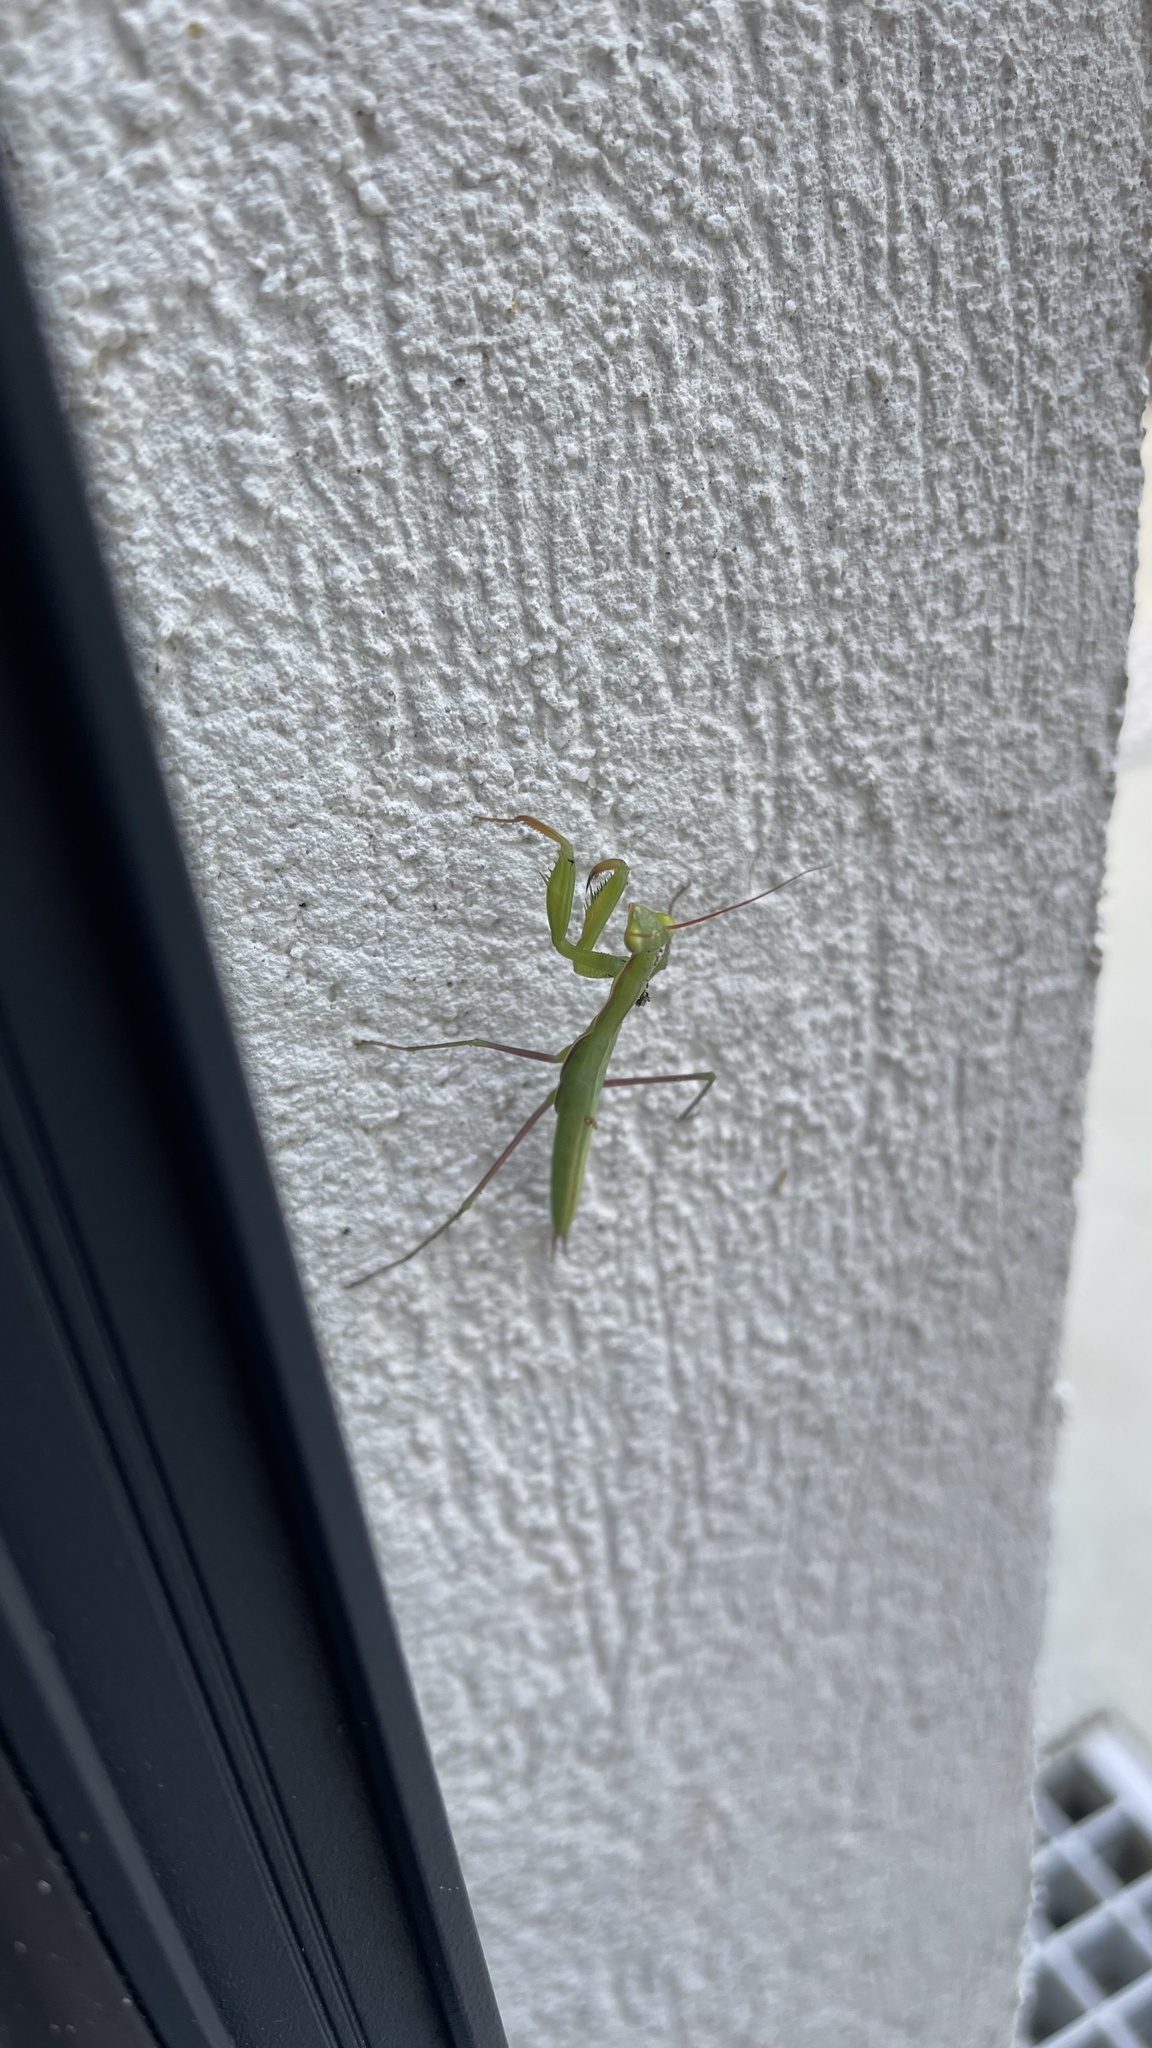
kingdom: Animalia
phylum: Arthropoda
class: Insecta
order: Mantodea
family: Mantidae
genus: Mantis
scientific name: Mantis religiosa
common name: Praying mantis
